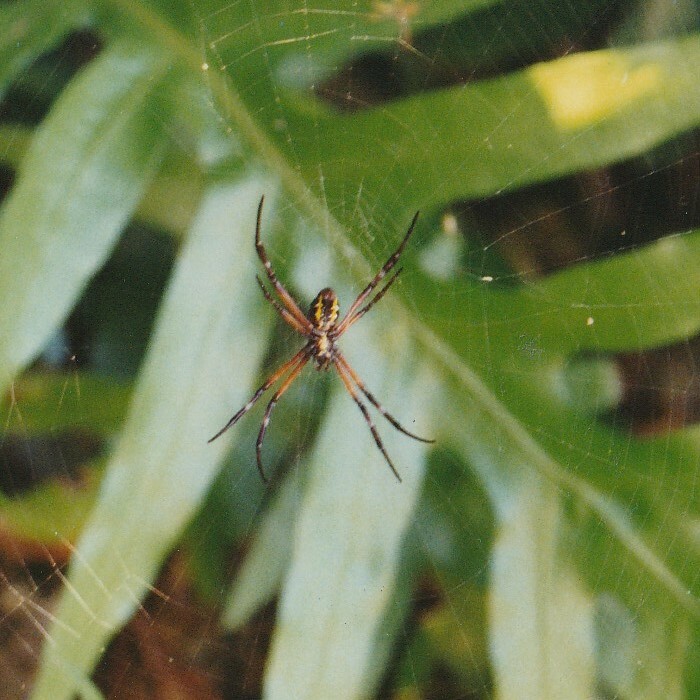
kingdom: Animalia
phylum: Arthropoda
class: Arachnida
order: Araneae
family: Araneidae
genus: Argiope
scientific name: Argiope appensa
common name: Garden spider
